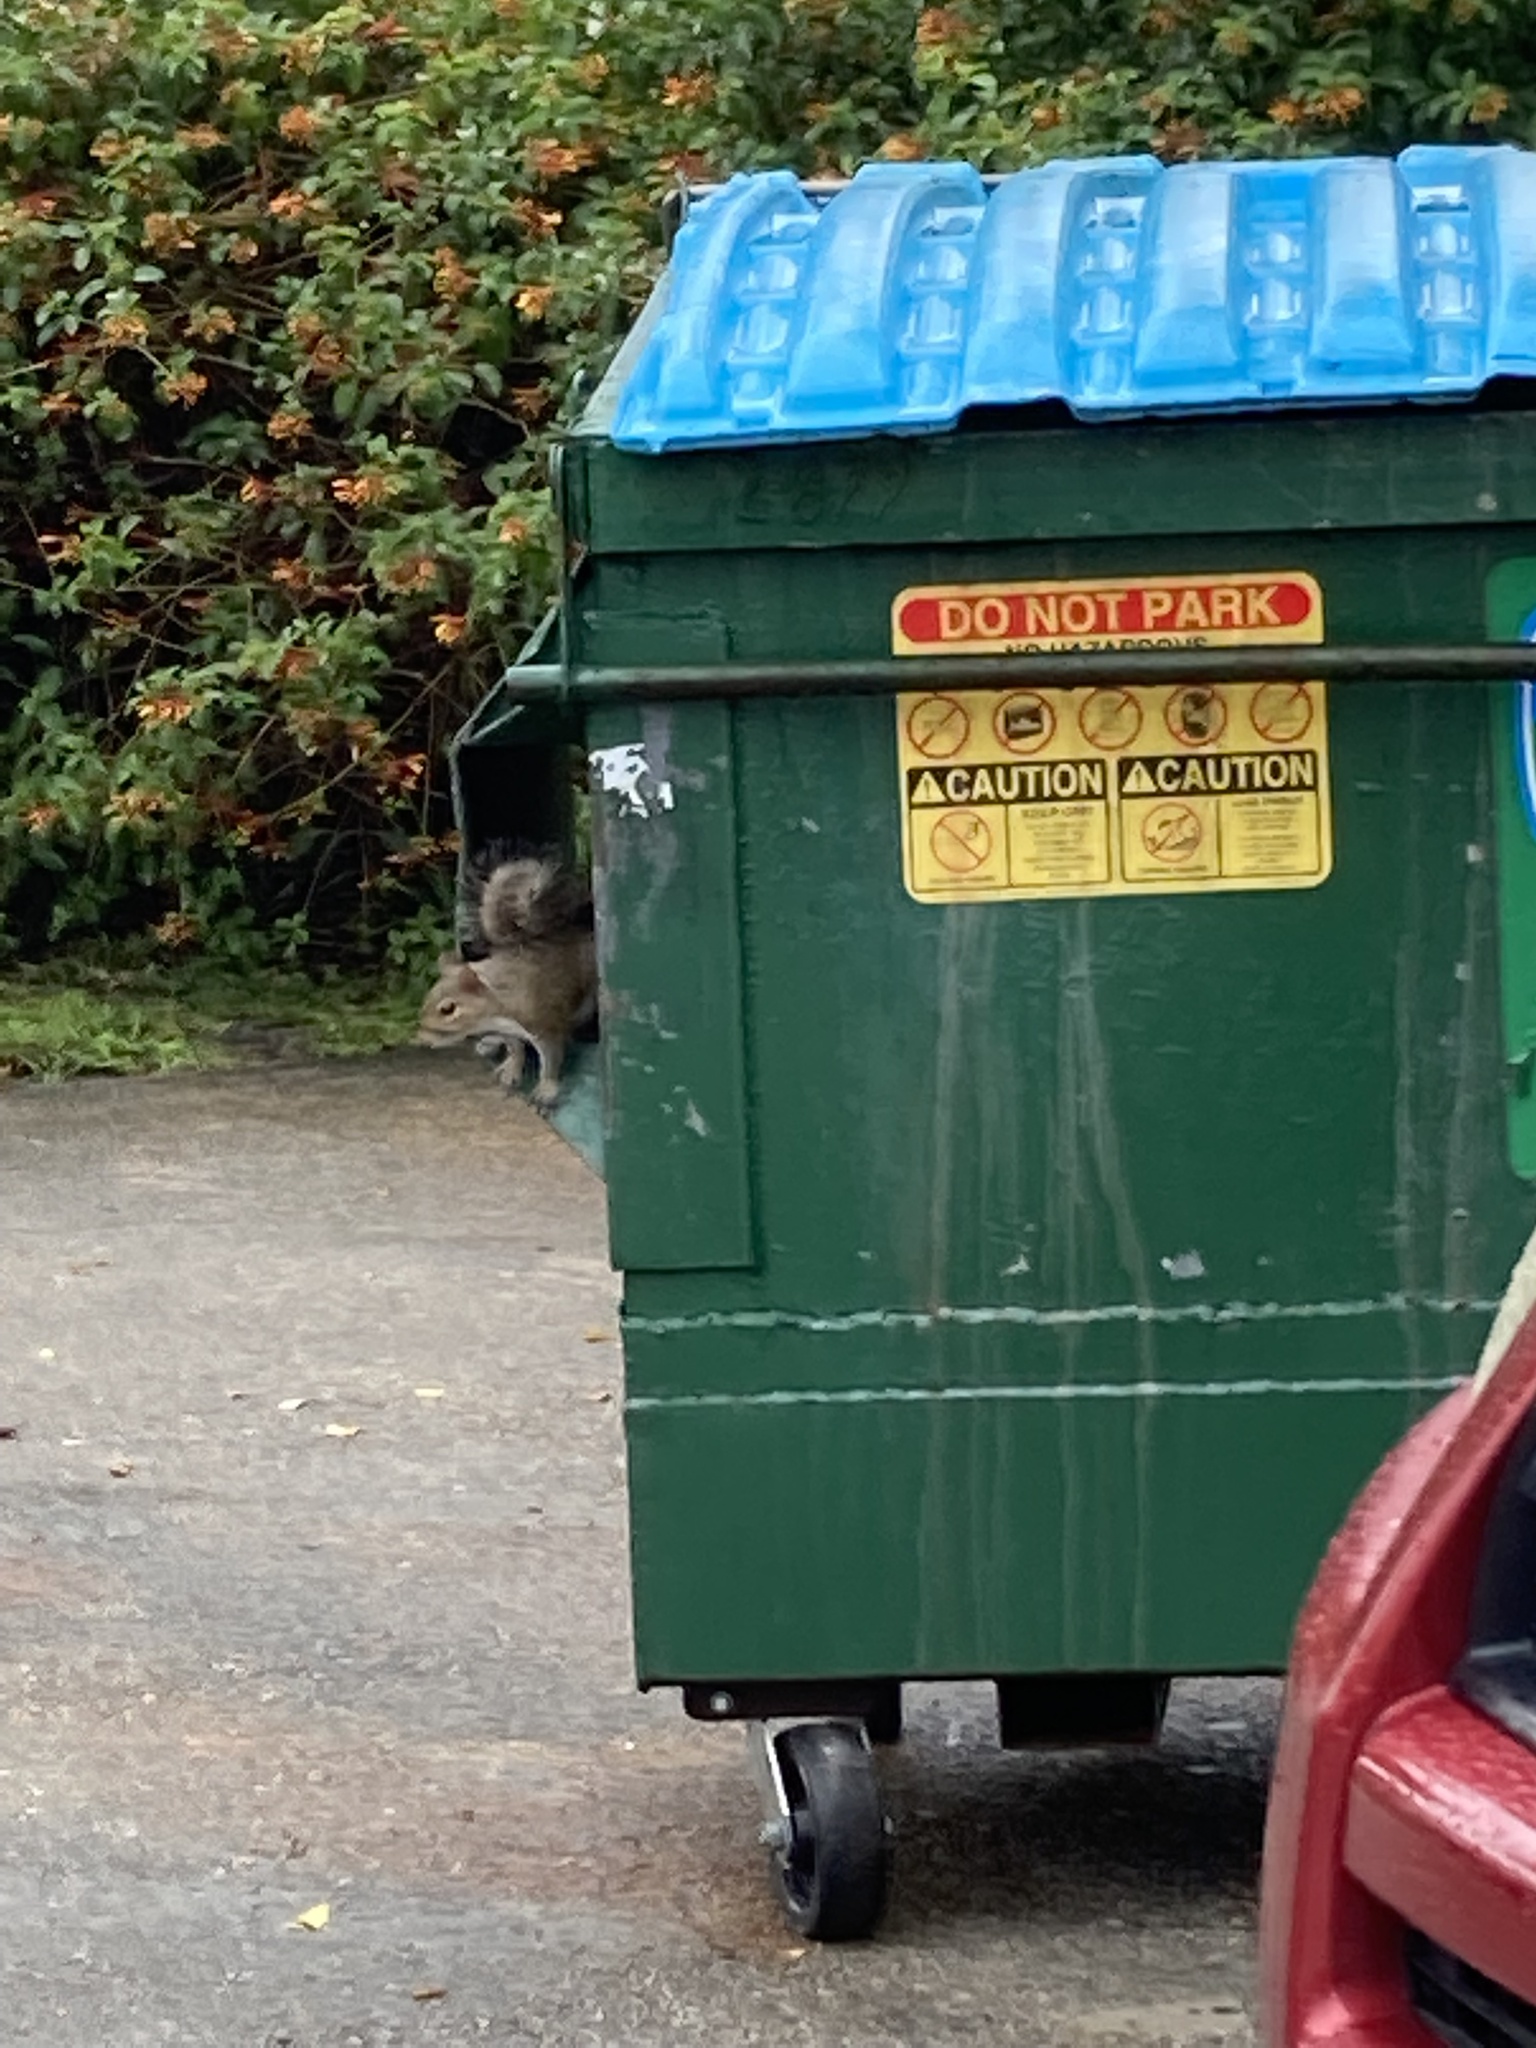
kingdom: Animalia
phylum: Chordata
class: Mammalia
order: Rodentia
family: Sciuridae
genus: Sciurus
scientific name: Sciurus carolinensis
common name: Eastern gray squirrel
